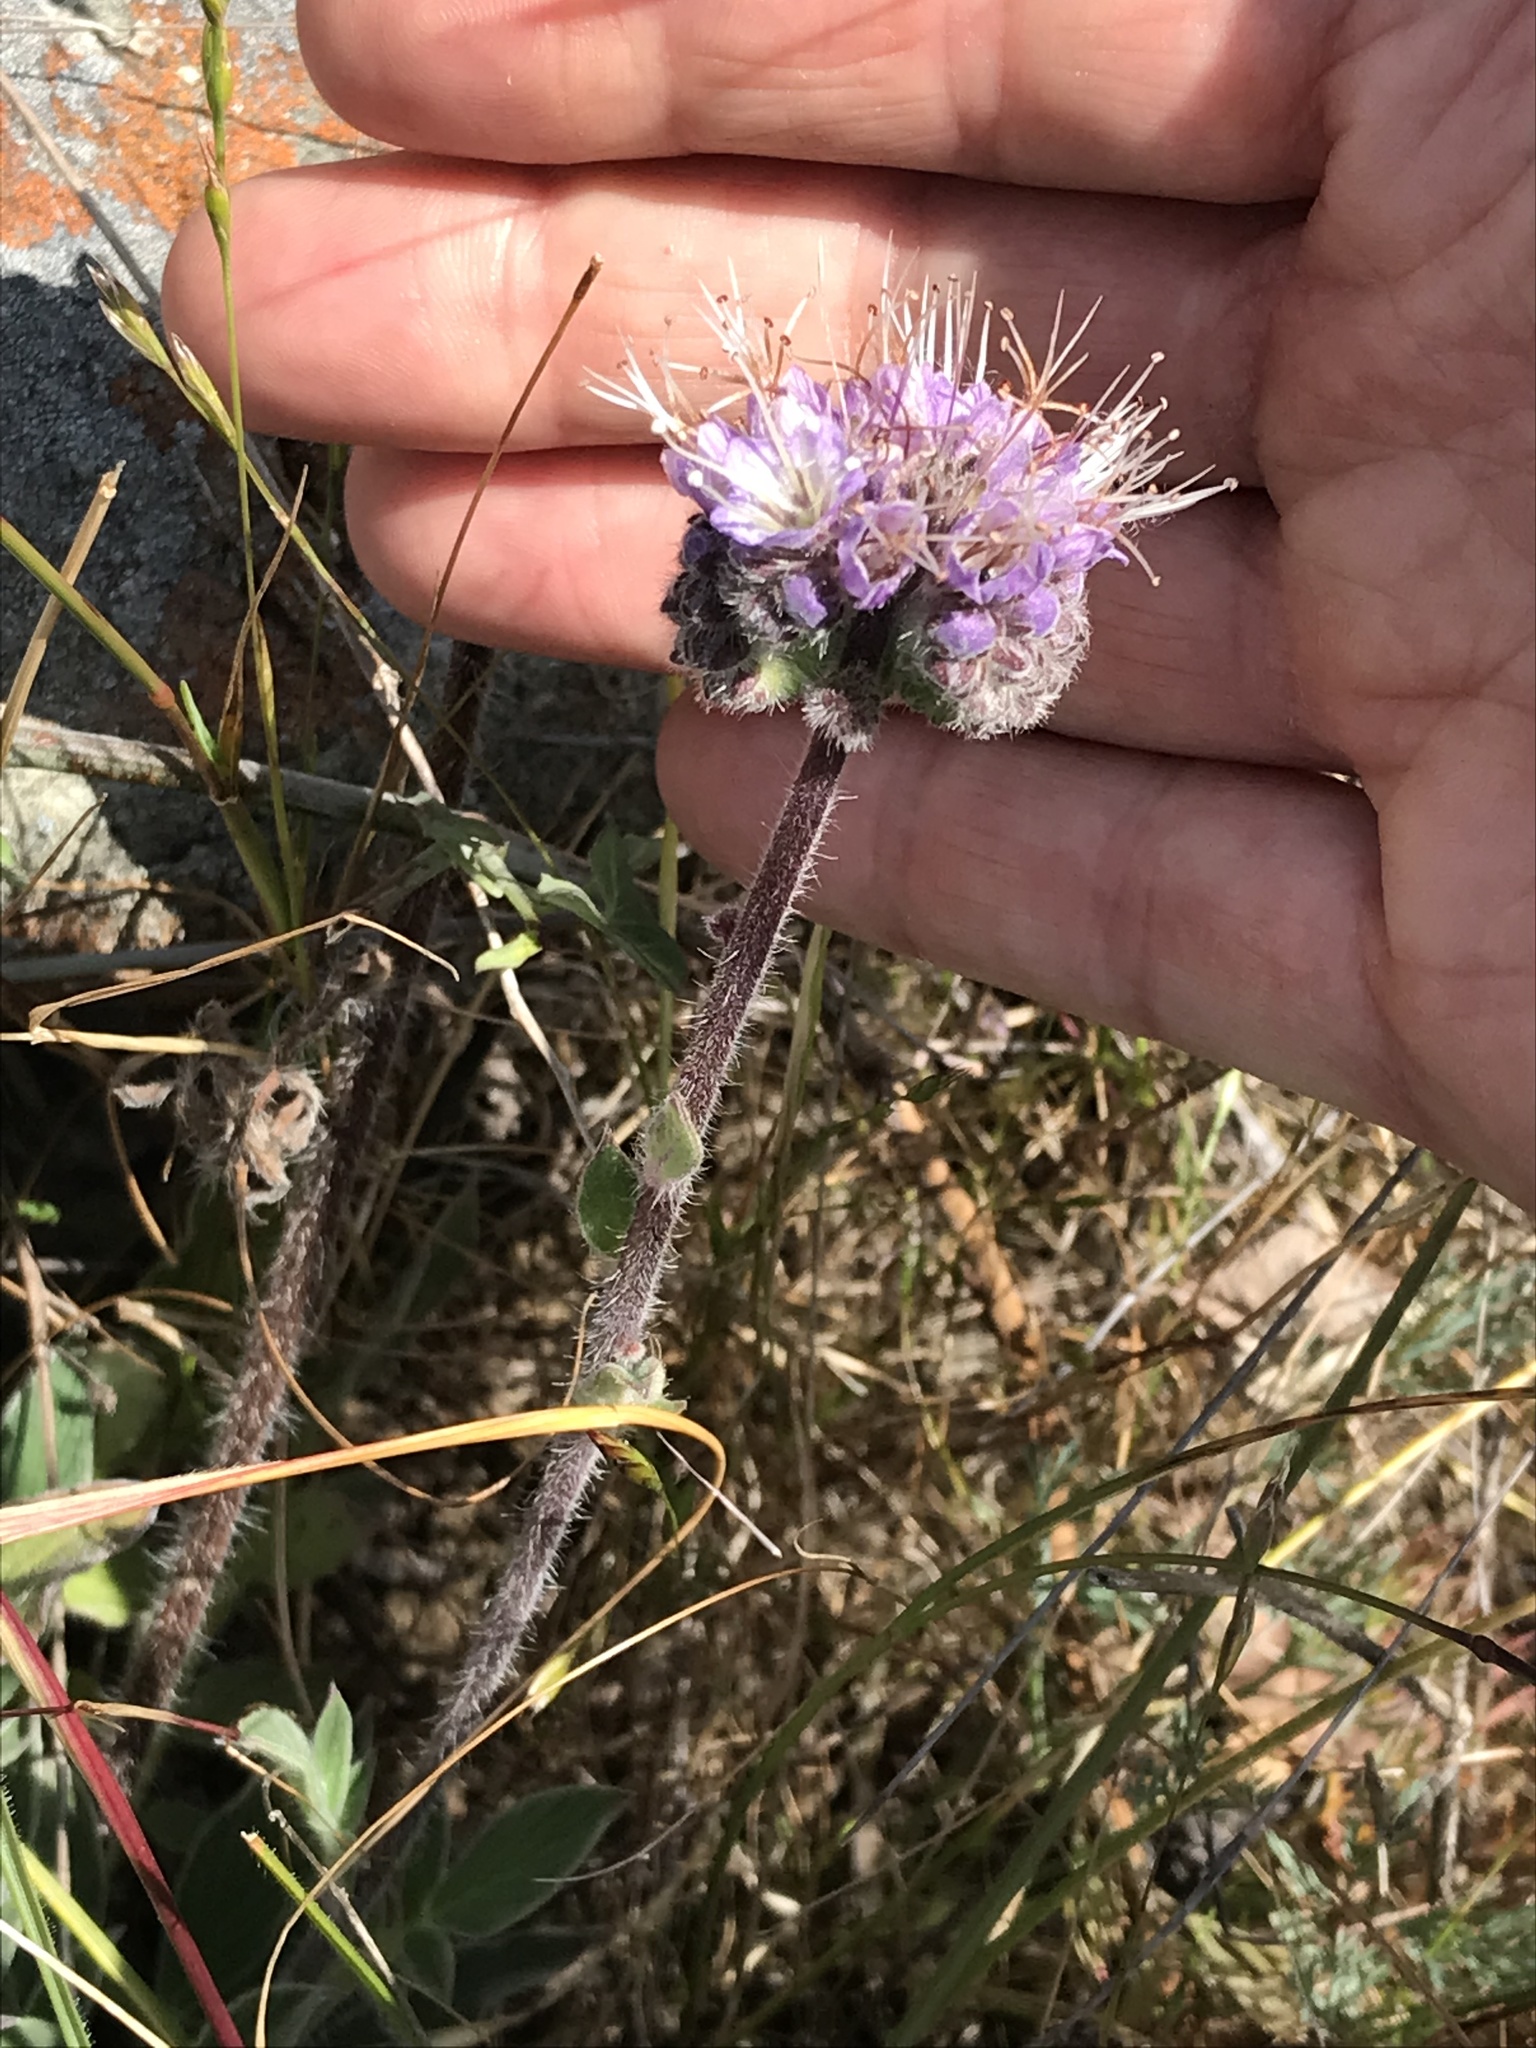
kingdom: Plantae
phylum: Tracheophyta
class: Magnoliopsida
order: Boraginales
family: Hydrophyllaceae
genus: Phacelia
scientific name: Phacelia californica
